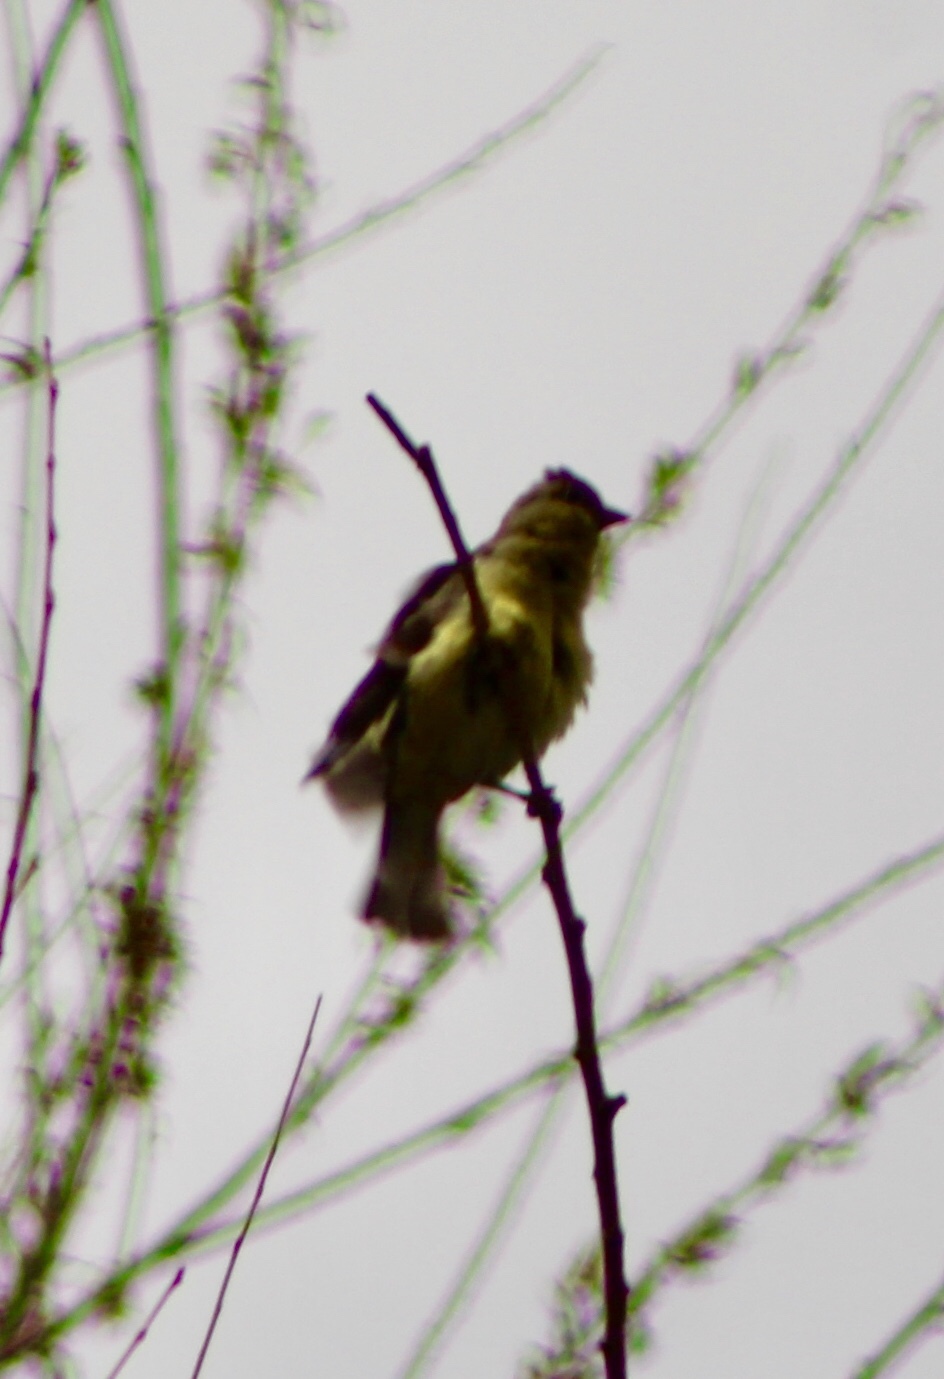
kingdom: Animalia
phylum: Chordata
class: Aves
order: Passeriformes
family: Fringillidae
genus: Spinus
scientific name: Spinus psaltria
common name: Lesser goldfinch
